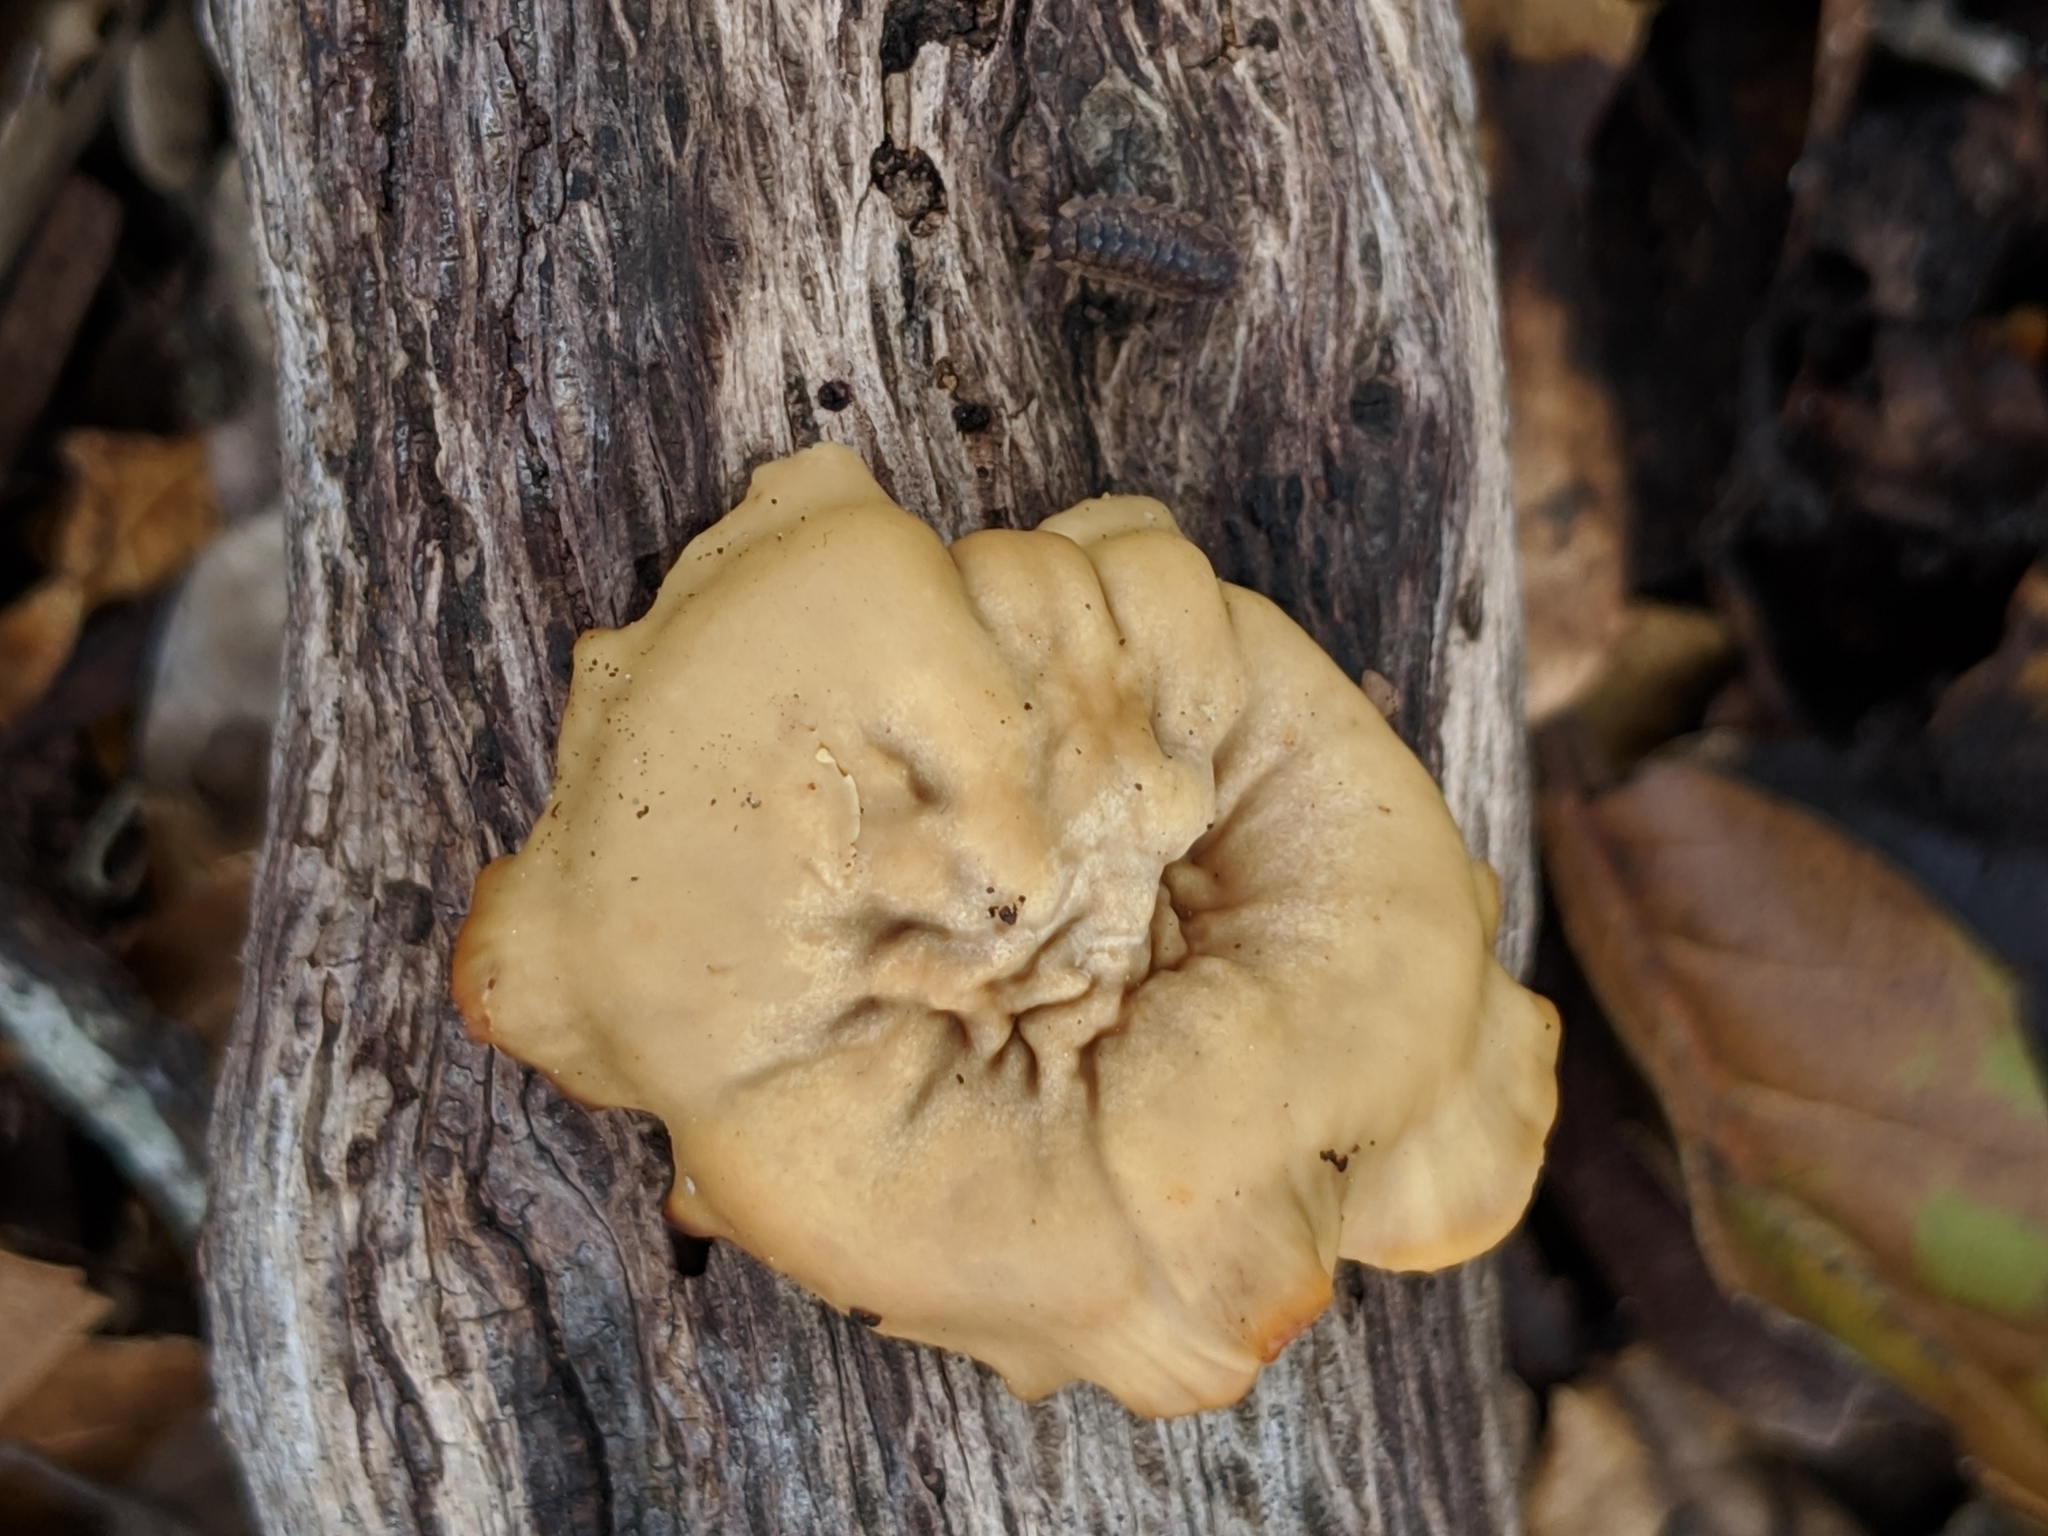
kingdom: Fungi
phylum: Basidiomycota
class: Agaricomycetes
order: Polyporales
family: Polyporaceae
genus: Cerioporus
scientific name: Cerioporus leptocephalus
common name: Blackfoot polypore
